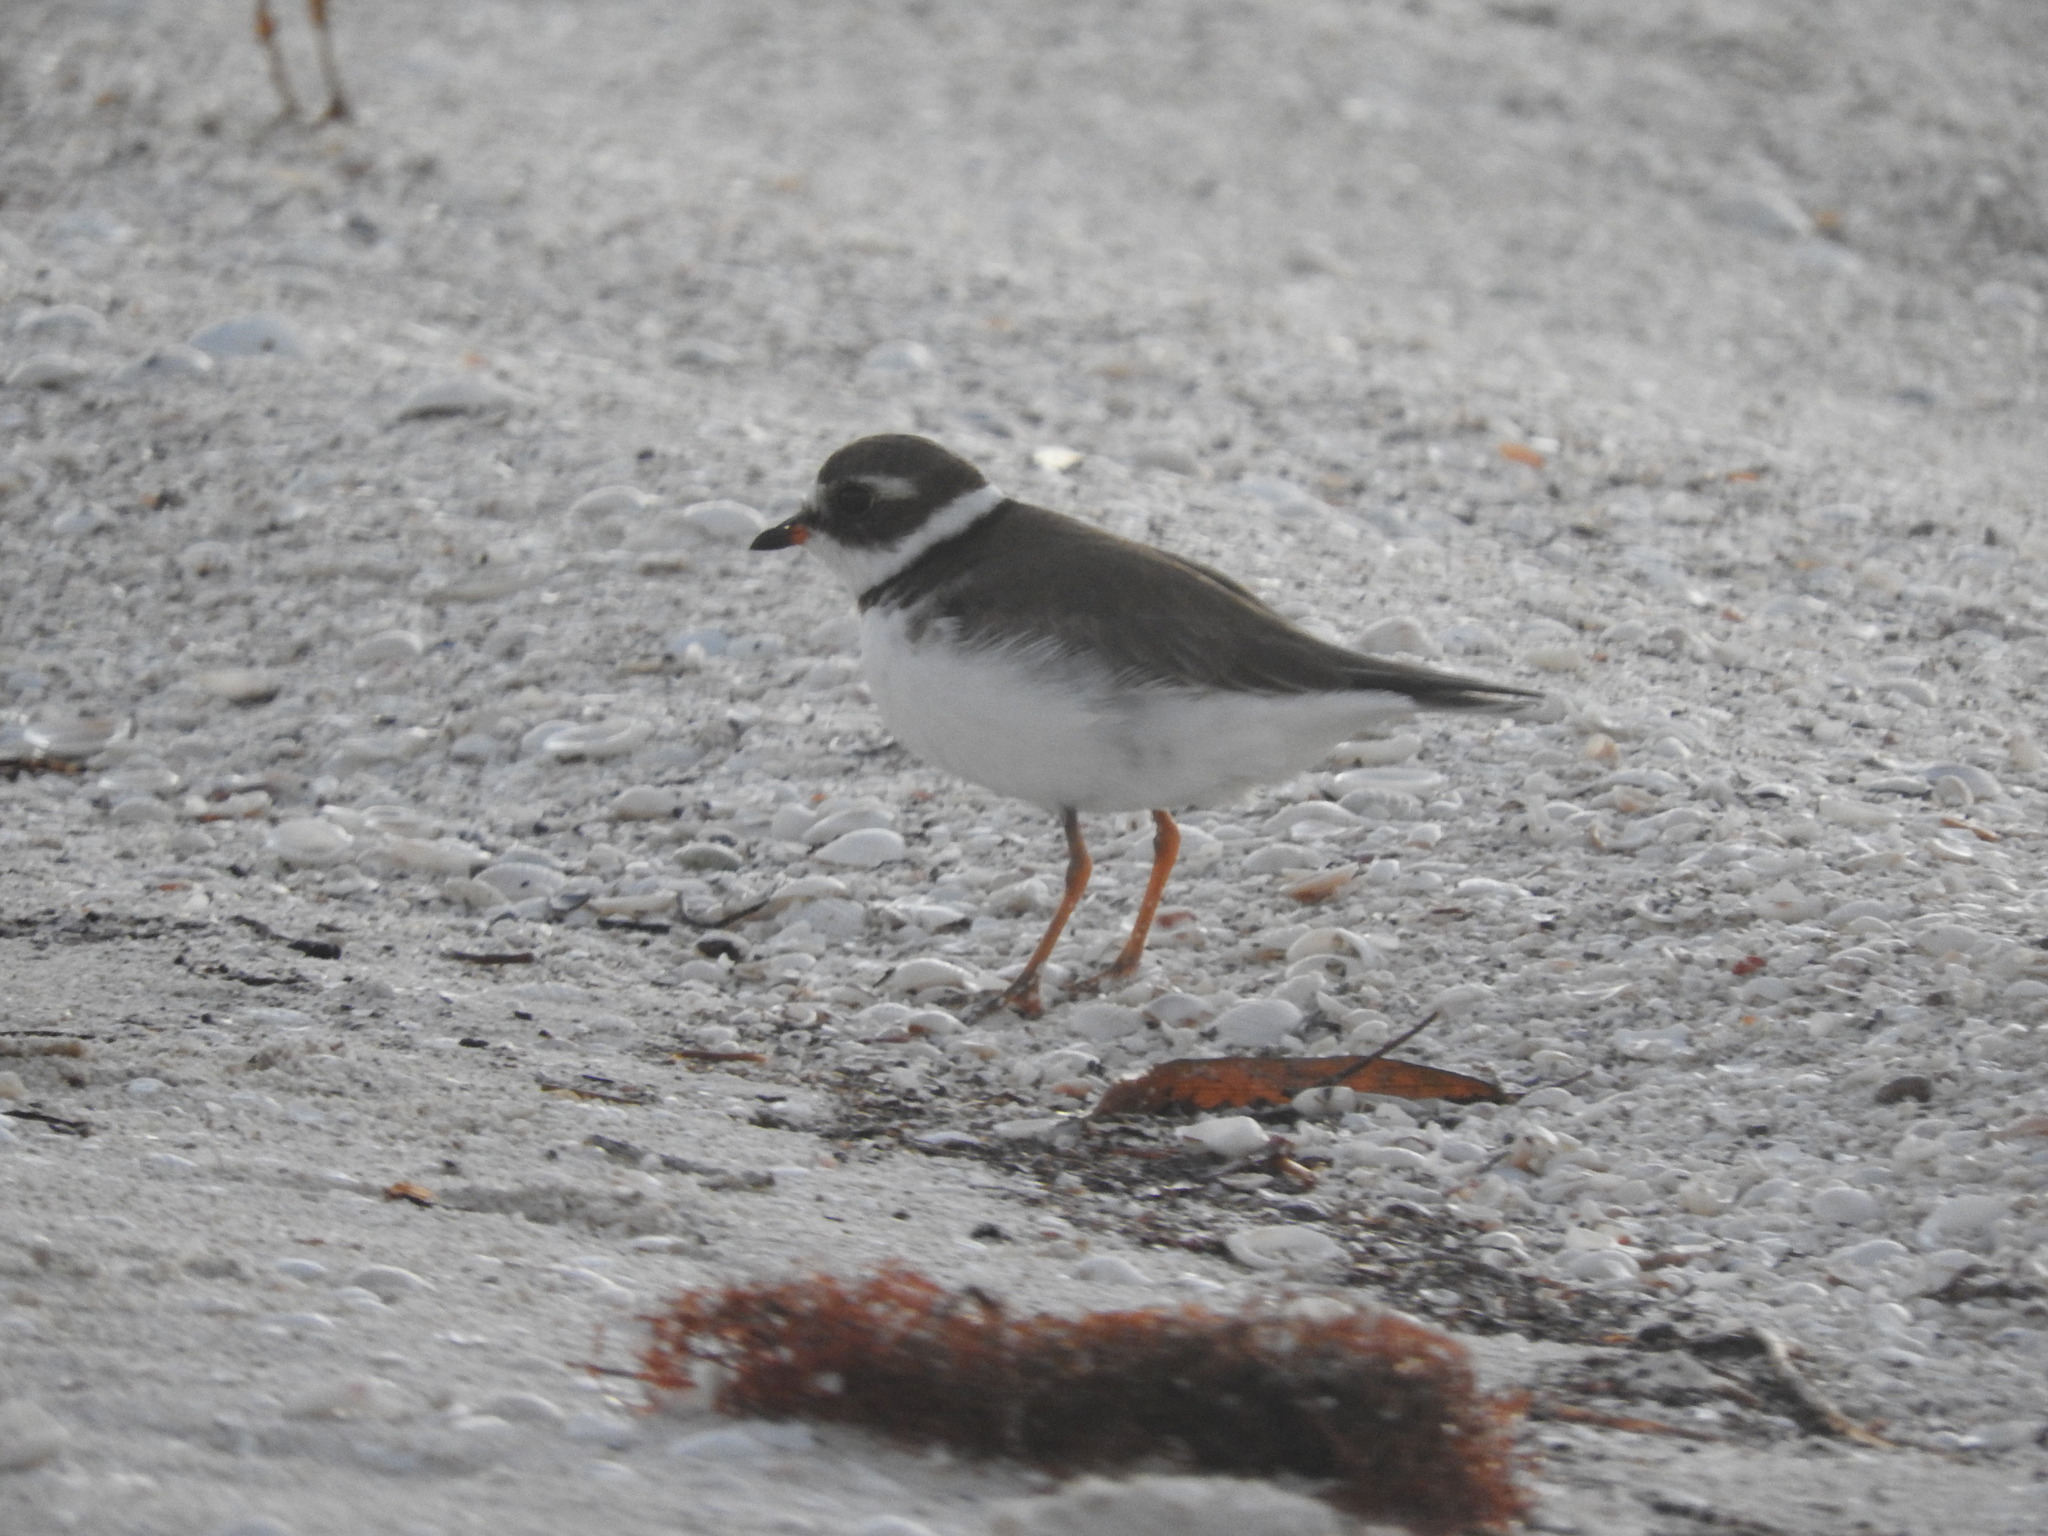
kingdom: Animalia
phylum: Chordata
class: Aves
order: Charadriiformes
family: Charadriidae
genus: Charadrius
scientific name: Charadrius semipalmatus
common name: Semipalmated plover
